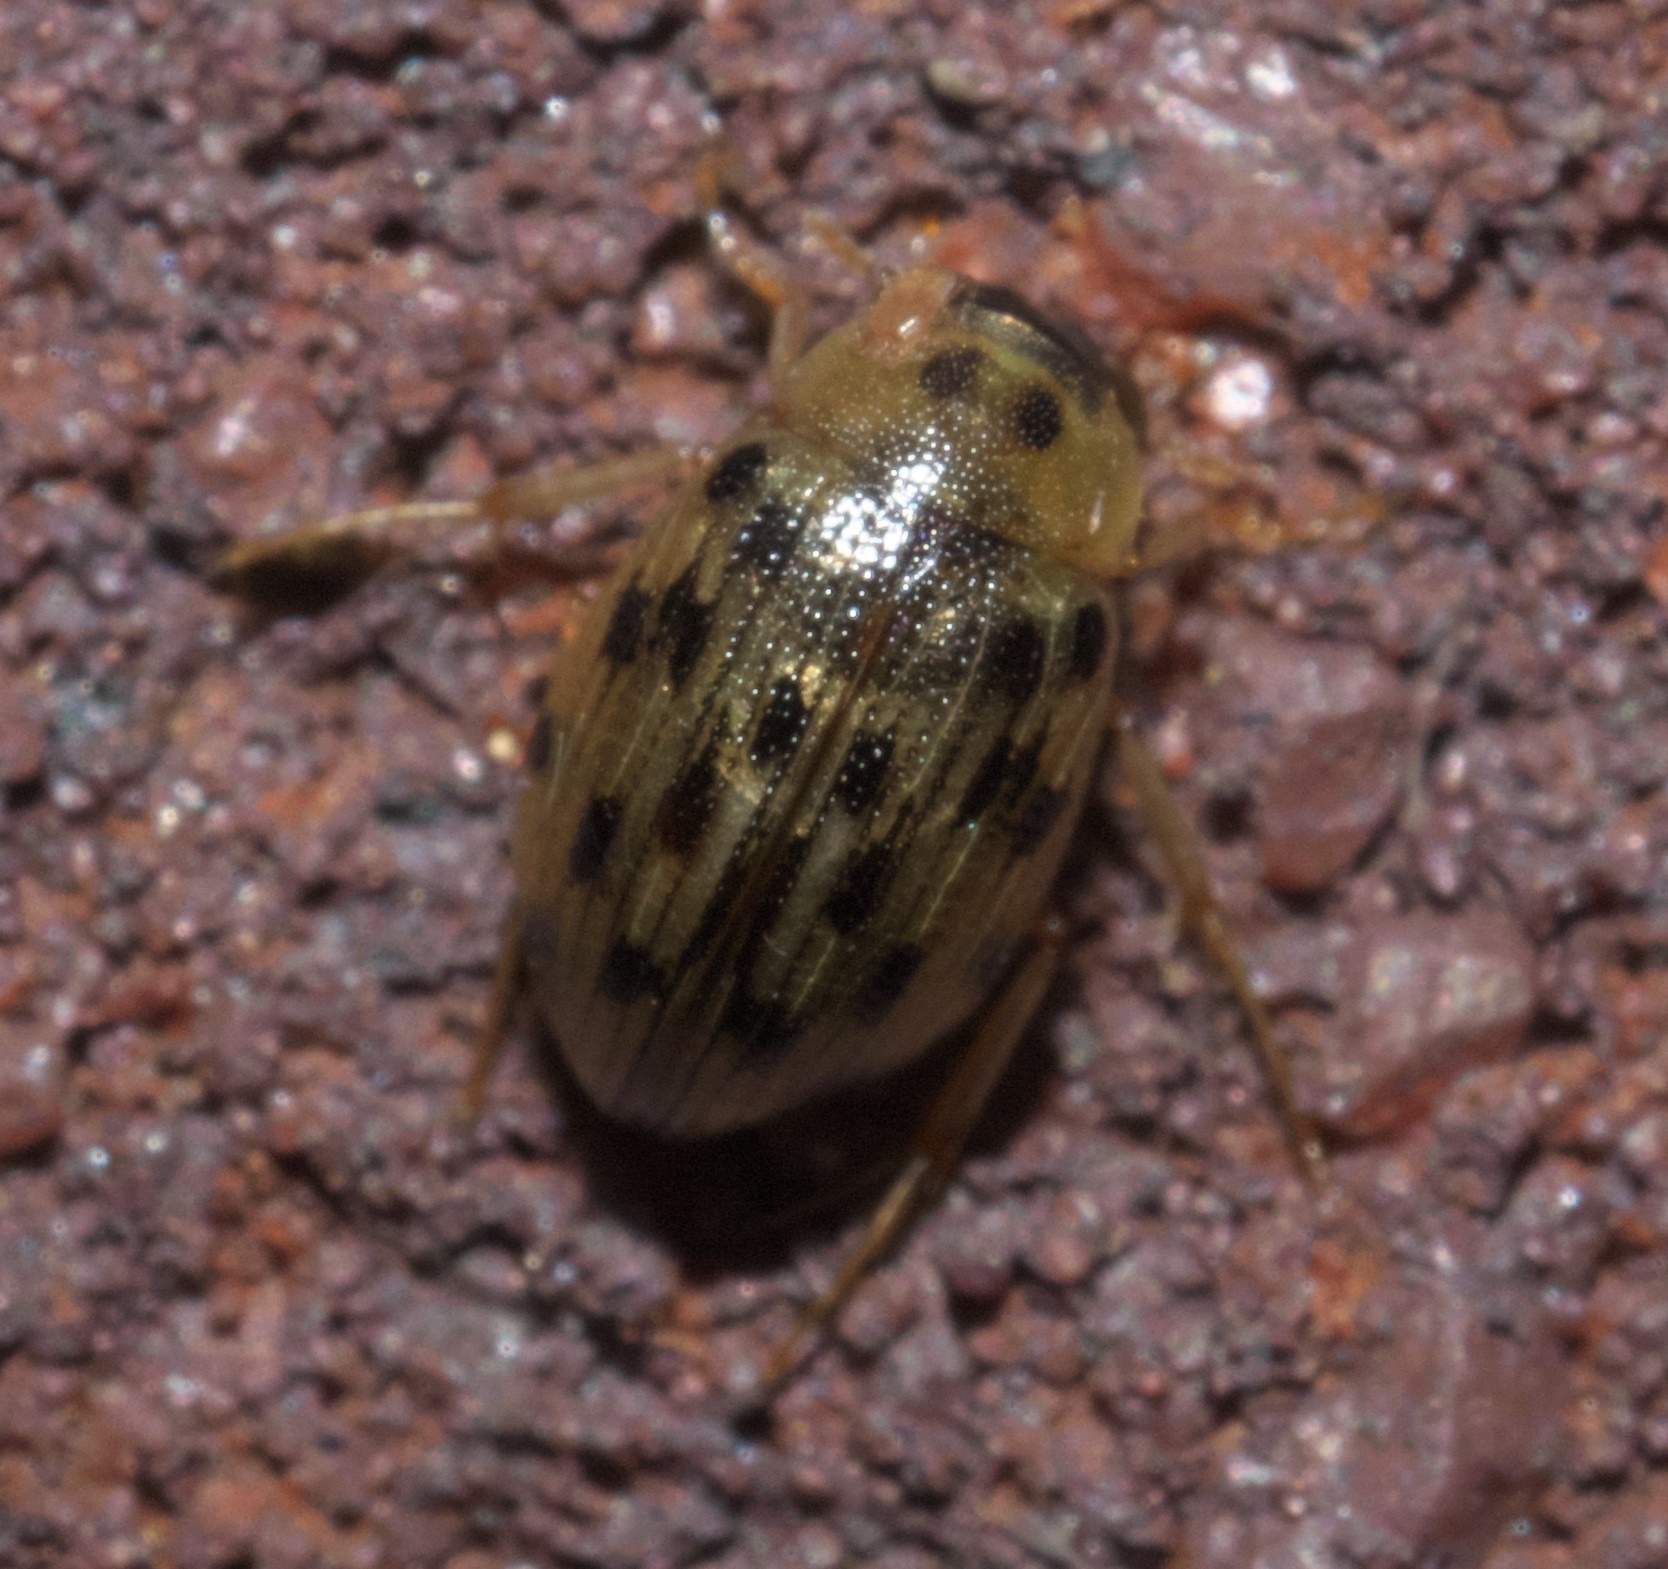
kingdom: Animalia
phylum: Arthropoda
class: Insecta
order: Coleoptera
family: Hydrophilidae
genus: Berosus
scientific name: Berosus pantherinus
